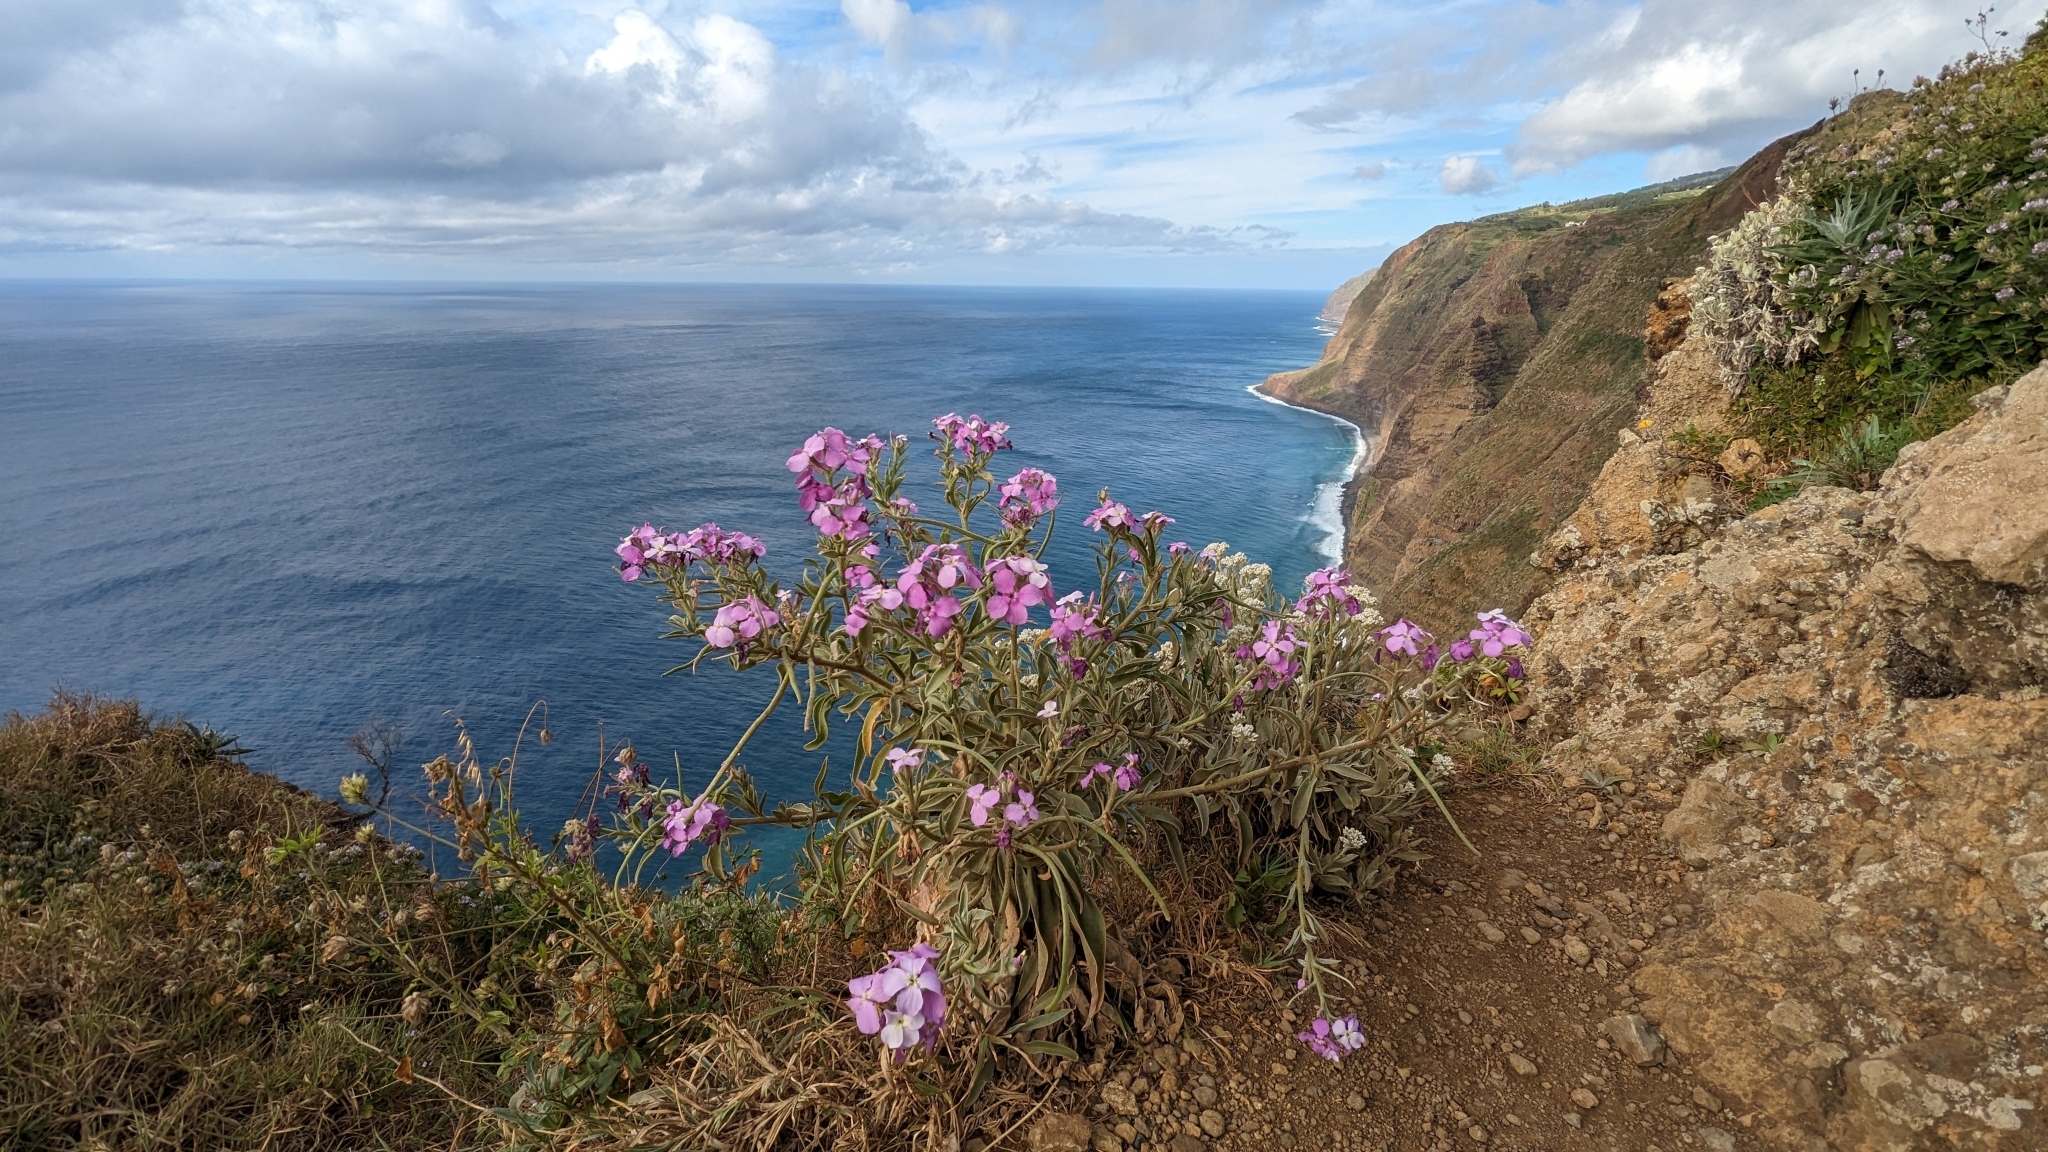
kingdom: Plantae
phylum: Tracheophyta
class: Magnoliopsida
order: Brassicales
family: Brassicaceae
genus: Matthiola
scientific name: Matthiola maderensis
